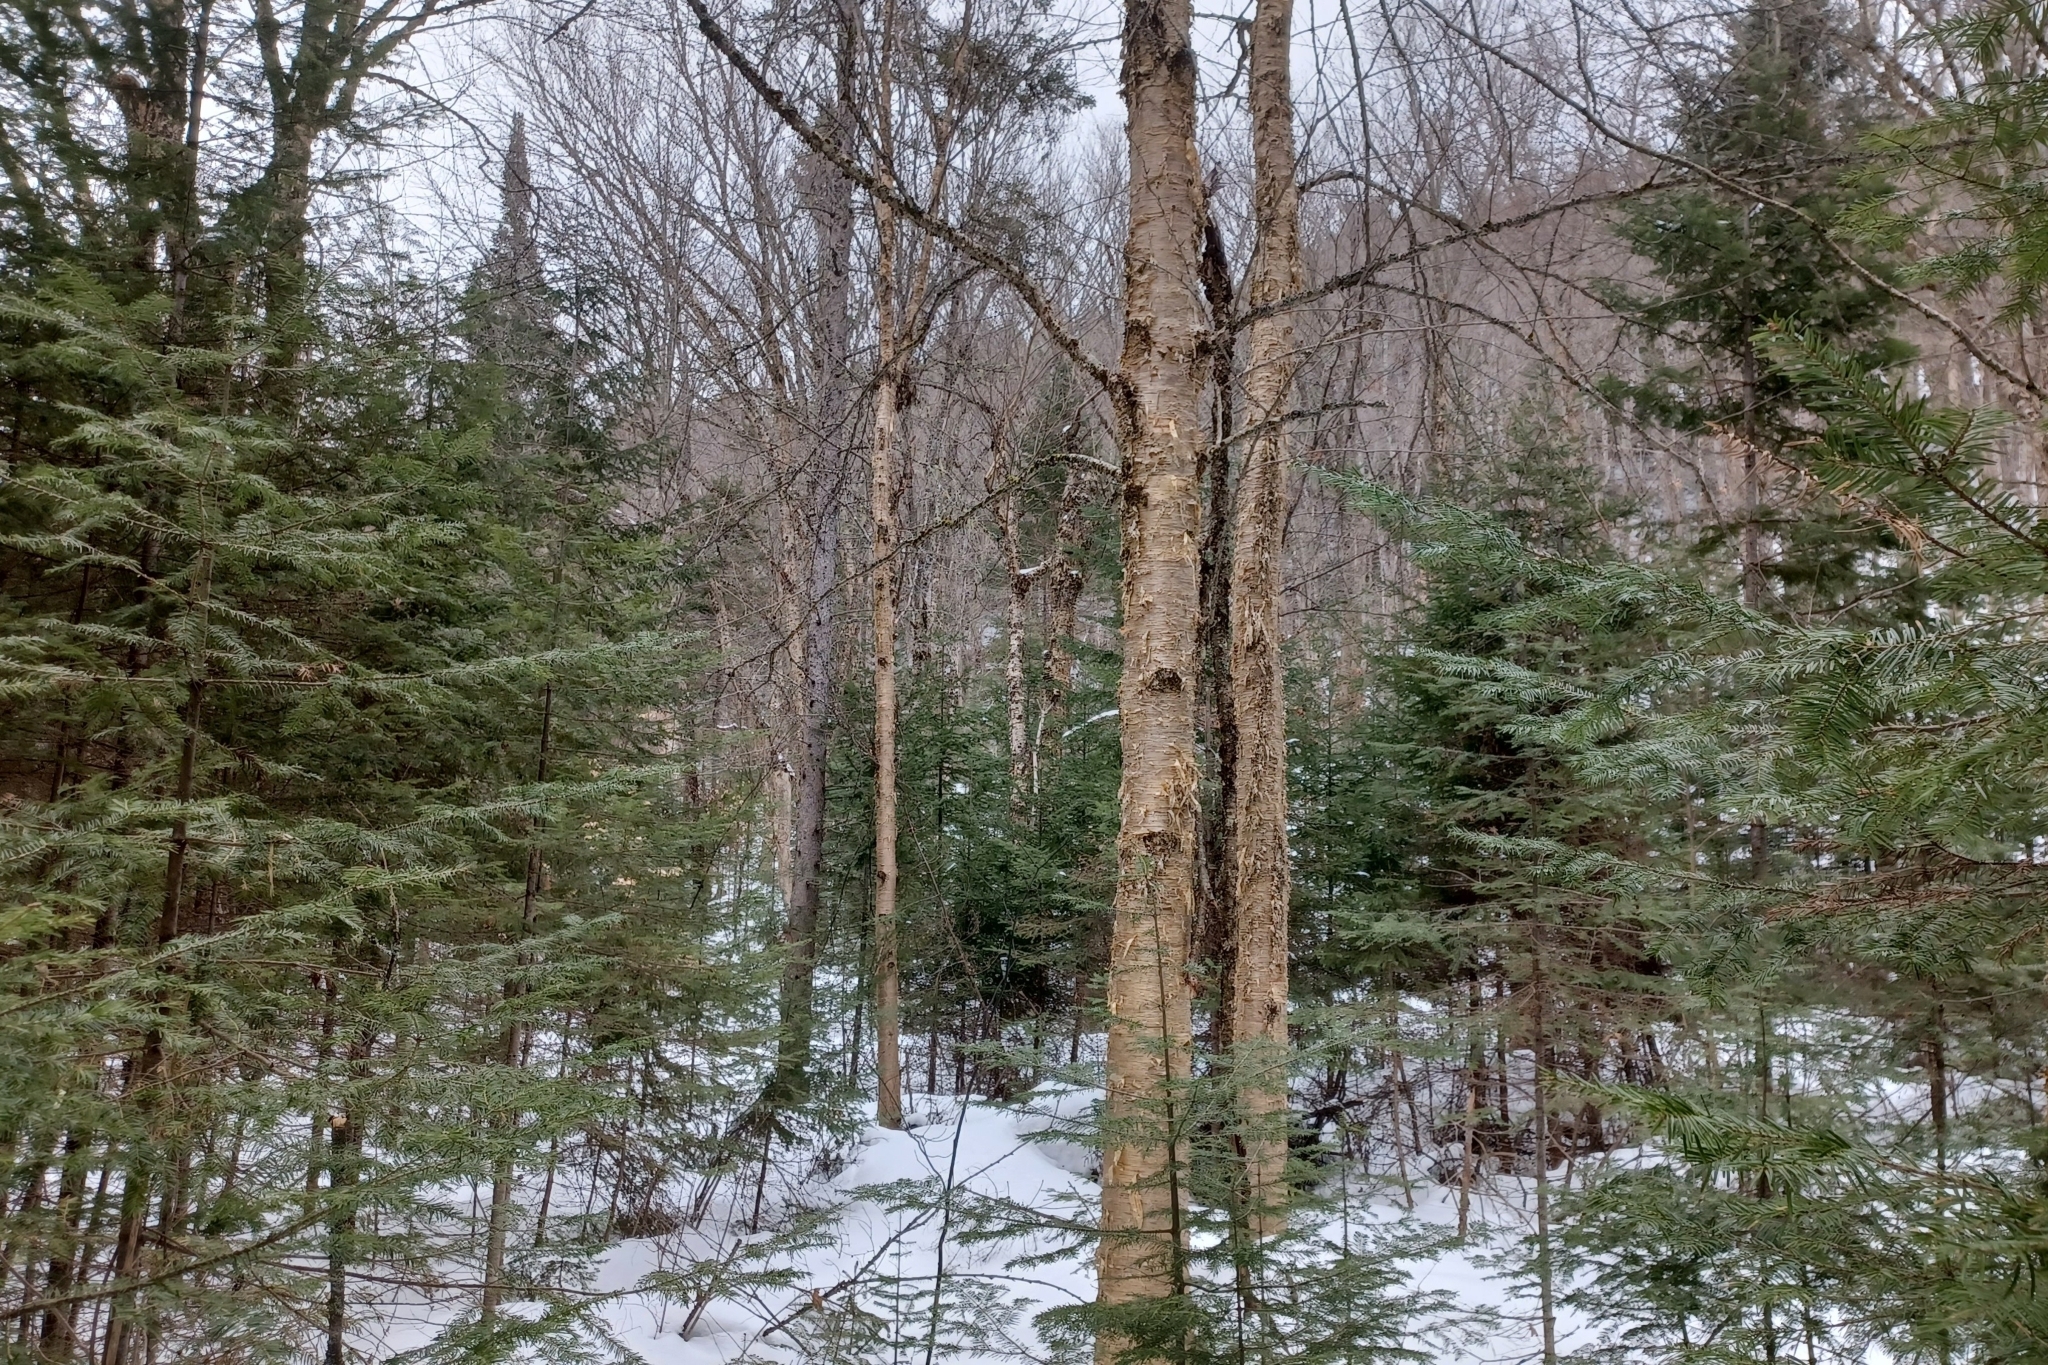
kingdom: Plantae
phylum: Tracheophyta
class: Magnoliopsida
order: Fagales
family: Betulaceae
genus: Betula
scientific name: Betula alleghaniensis
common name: Yellow birch
